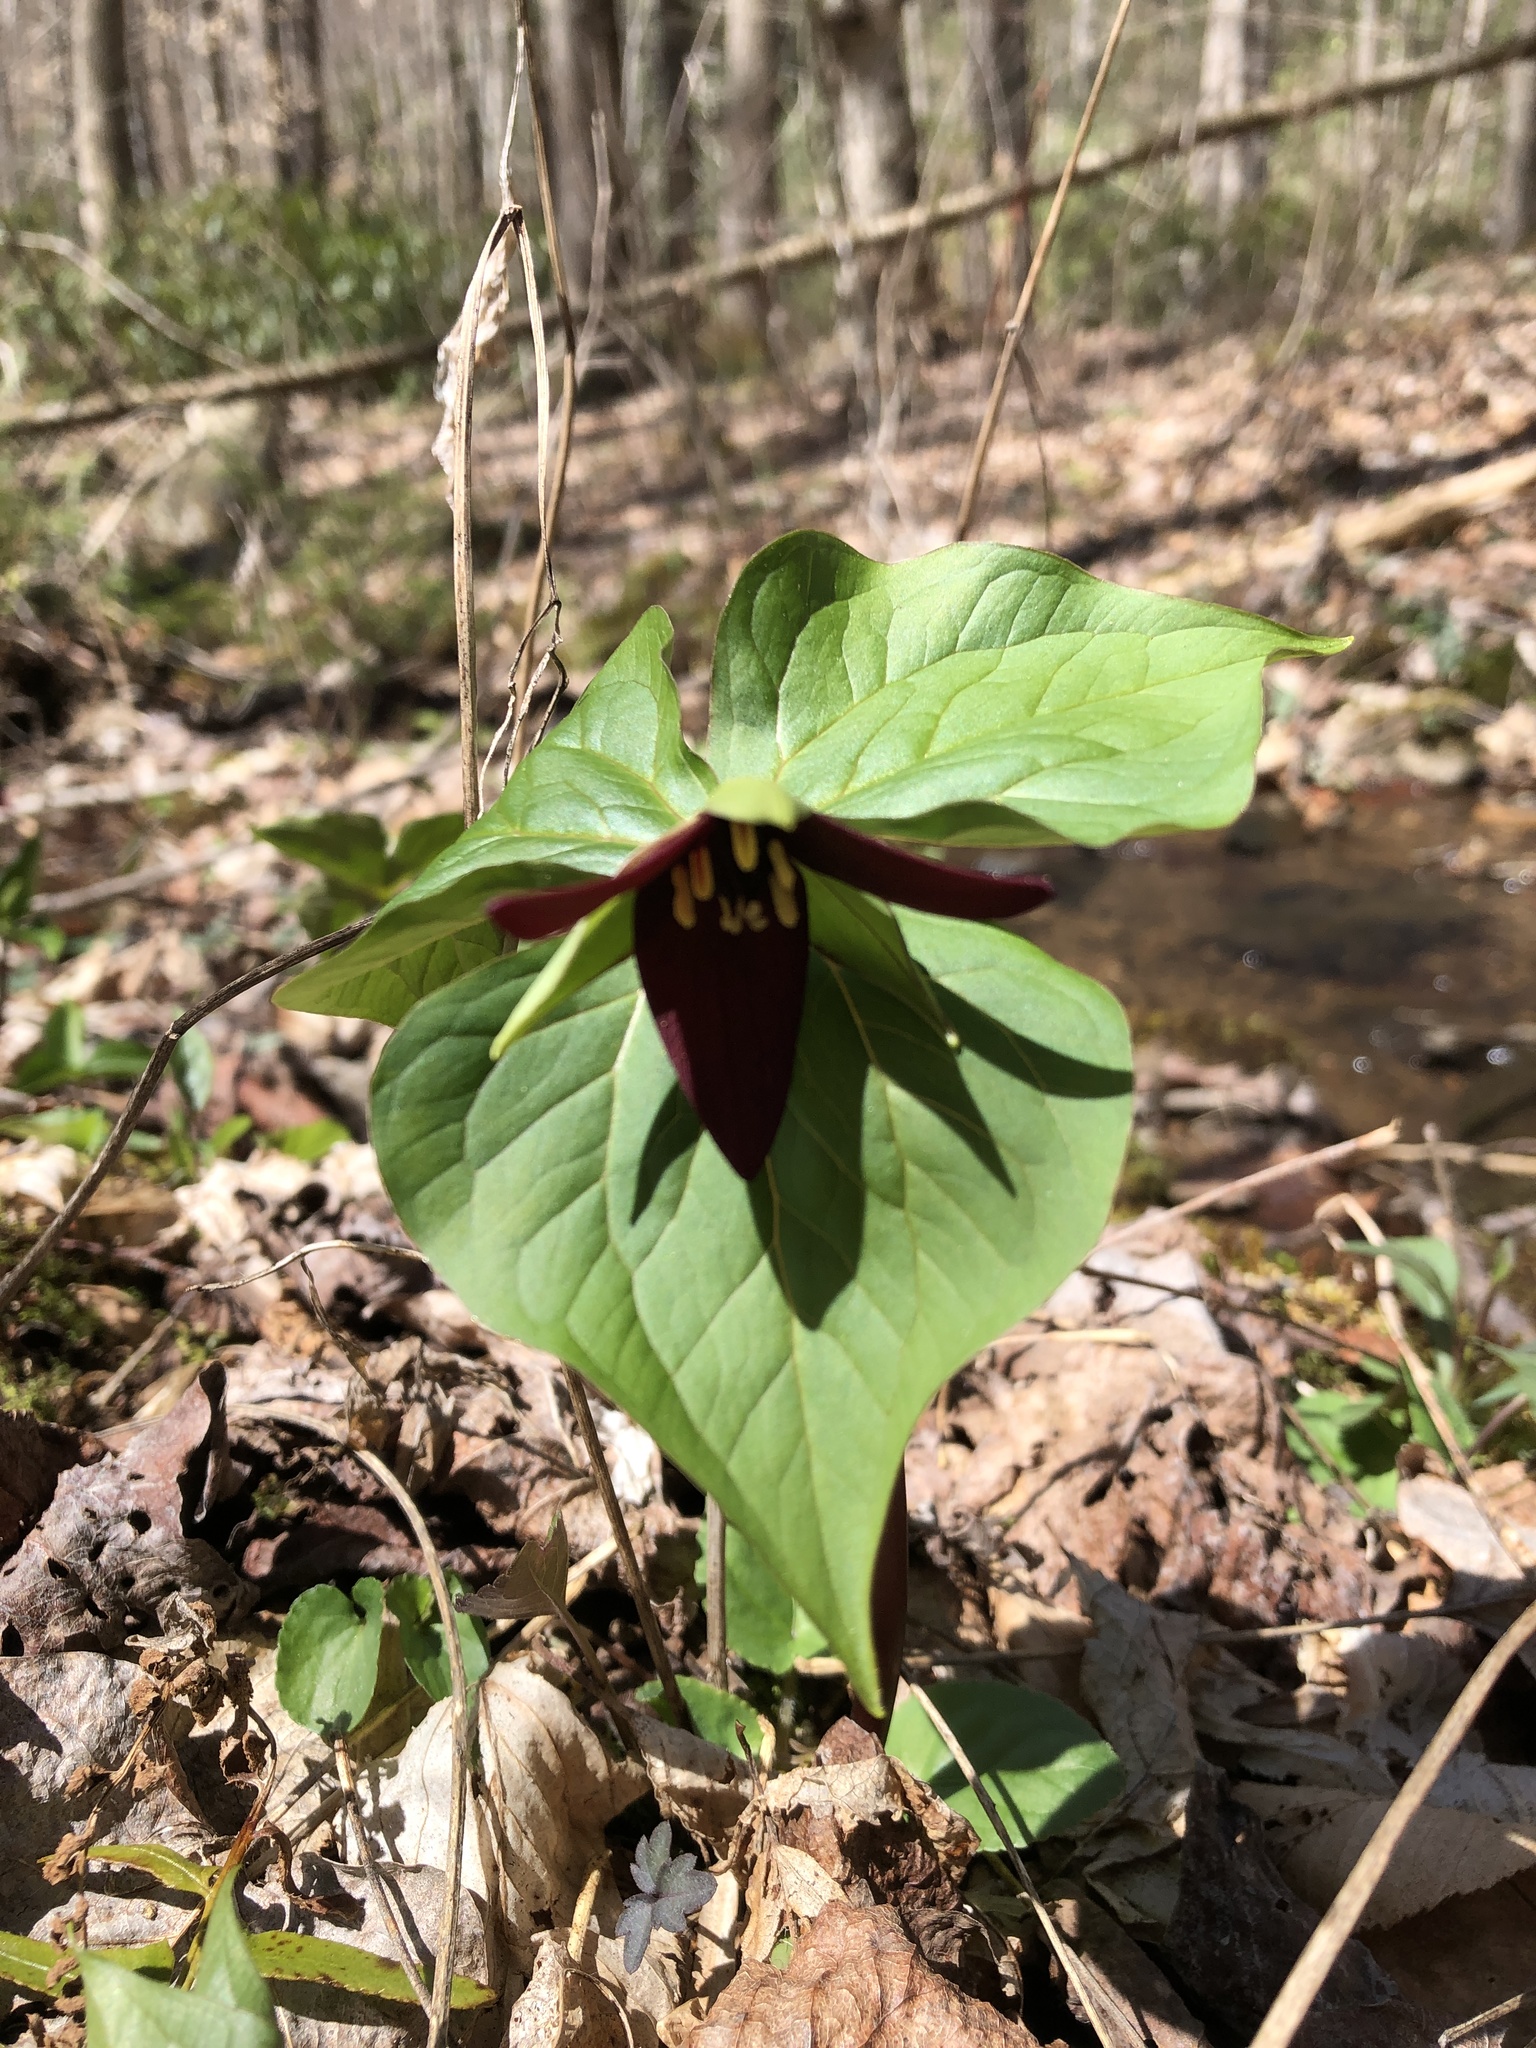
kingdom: Plantae
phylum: Tracheophyta
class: Liliopsida
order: Liliales
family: Melanthiaceae
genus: Trillium
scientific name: Trillium erectum
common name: Purple trillium
